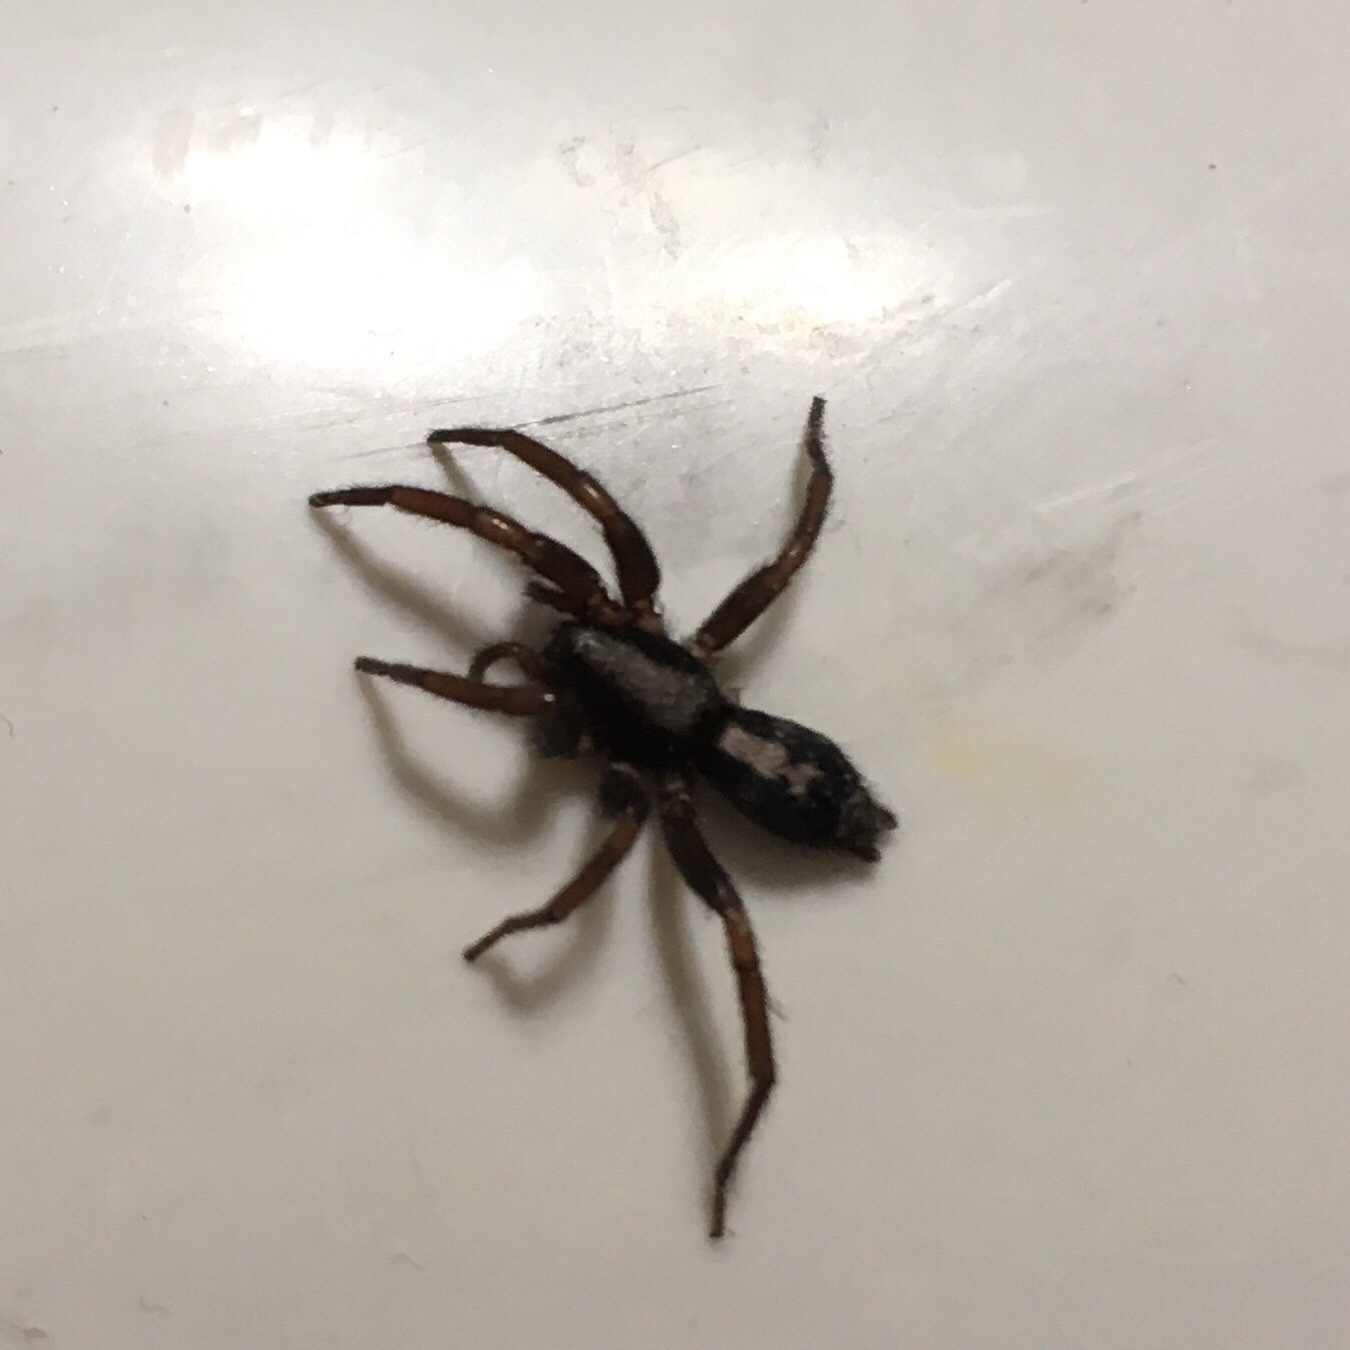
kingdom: Animalia
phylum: Arthropoda
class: Arachnida
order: Araneae
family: Gnaphosidae
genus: Herpyllus
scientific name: Herpyllus ecclesiasticus
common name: Eastern parson spider
